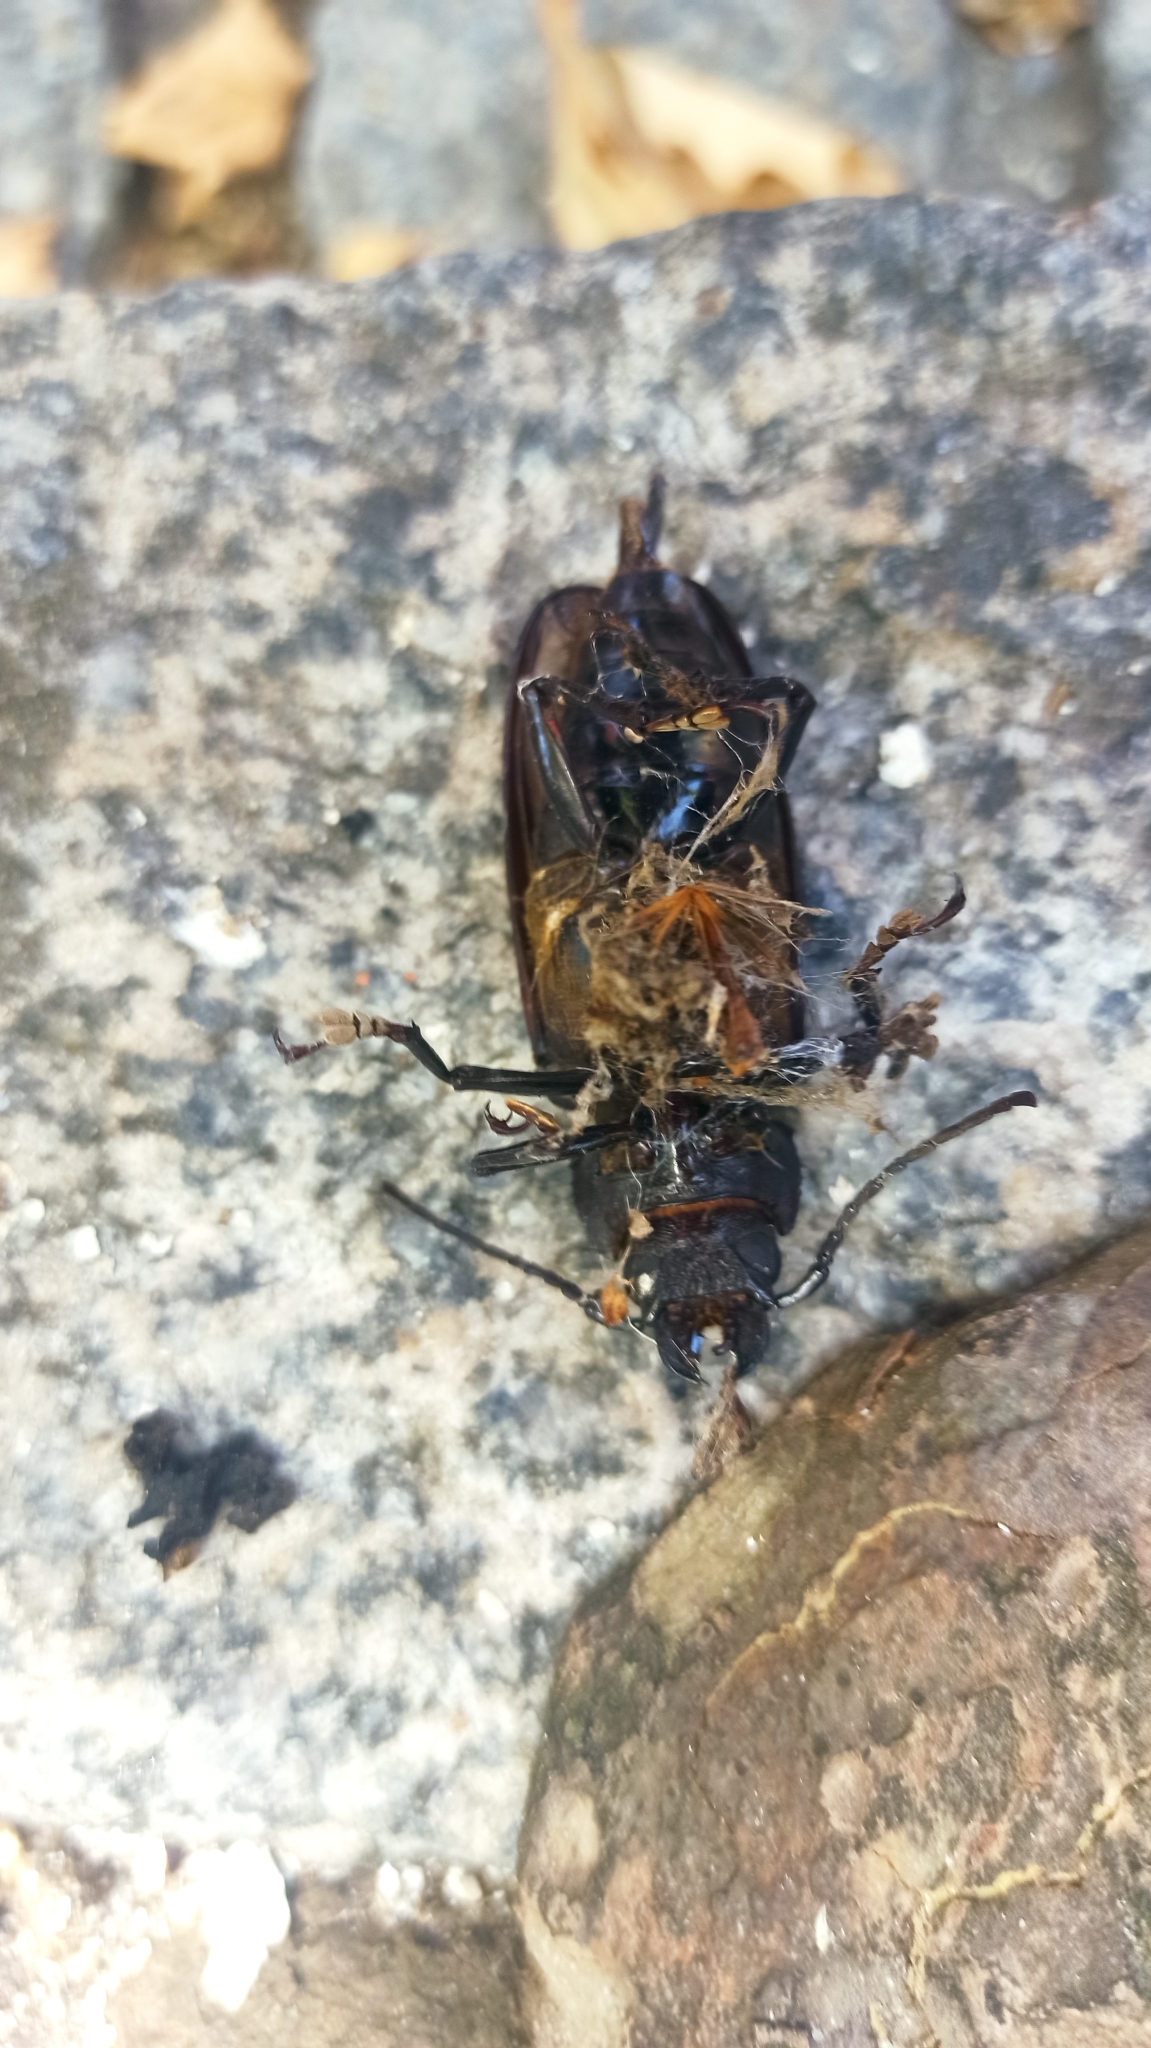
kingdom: Animalia
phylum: Arthropoda
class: Insecta
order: Coleoptera
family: Cerambycidae
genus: Mallodon
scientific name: Mallodon dasystomum
